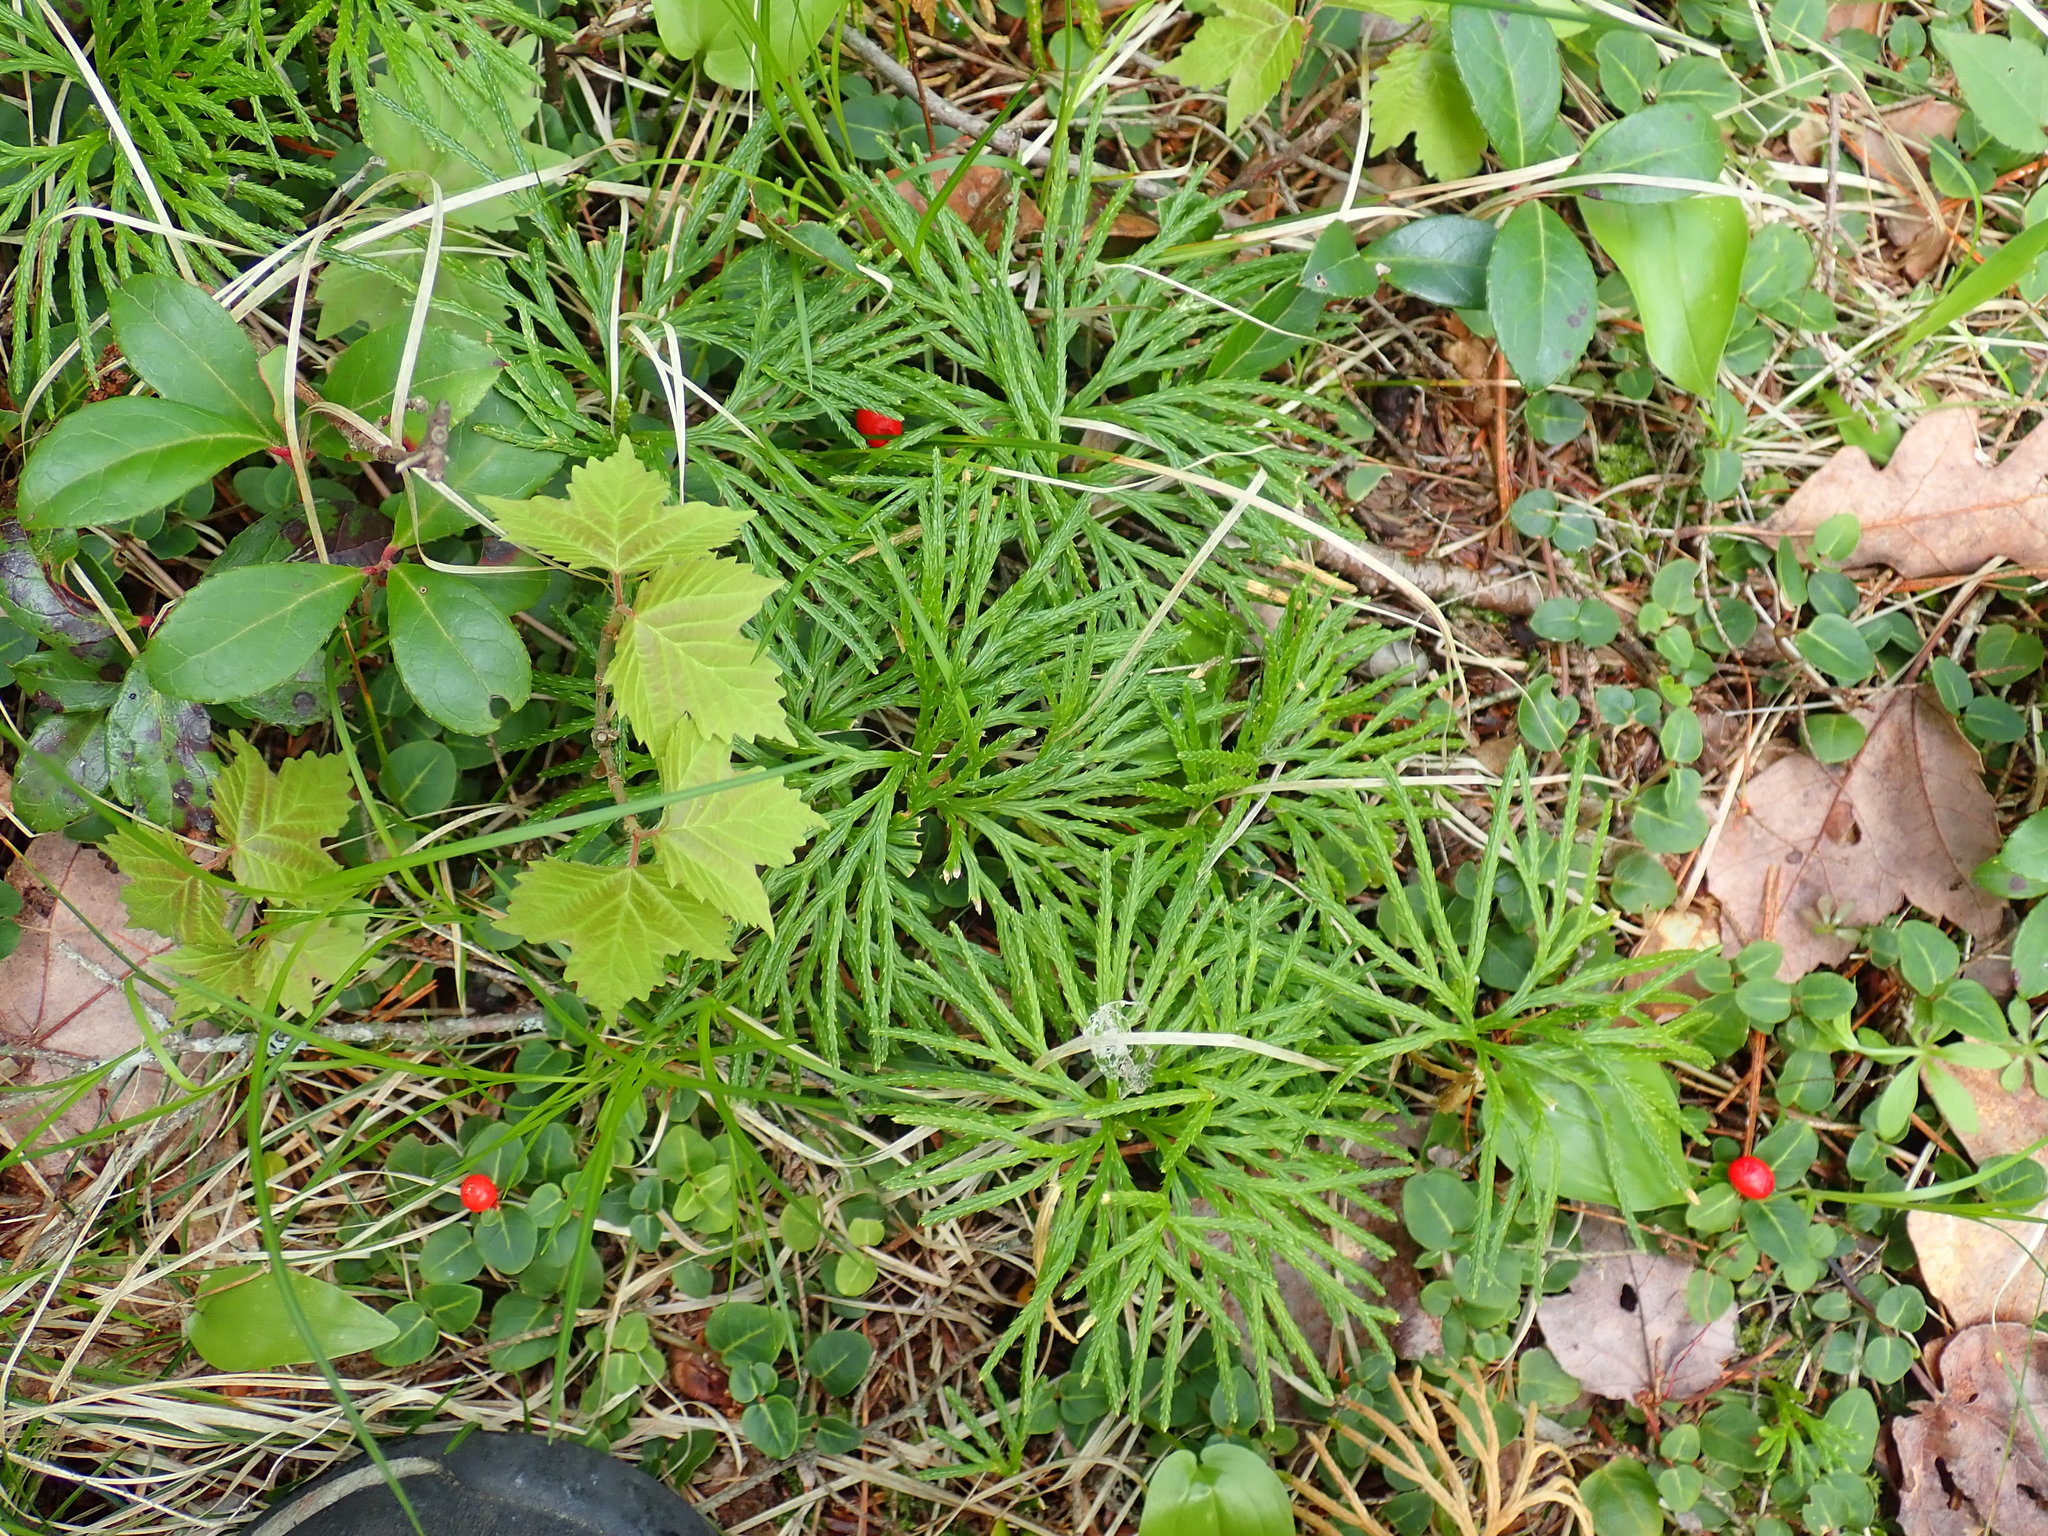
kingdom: Plantae
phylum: Tracheophyta
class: Lycopodiopsida
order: Lycopodiales
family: Lycopodiaceae
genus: Diphasiastrum
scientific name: Diphasiastrum digitatum
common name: Southern running-pine
